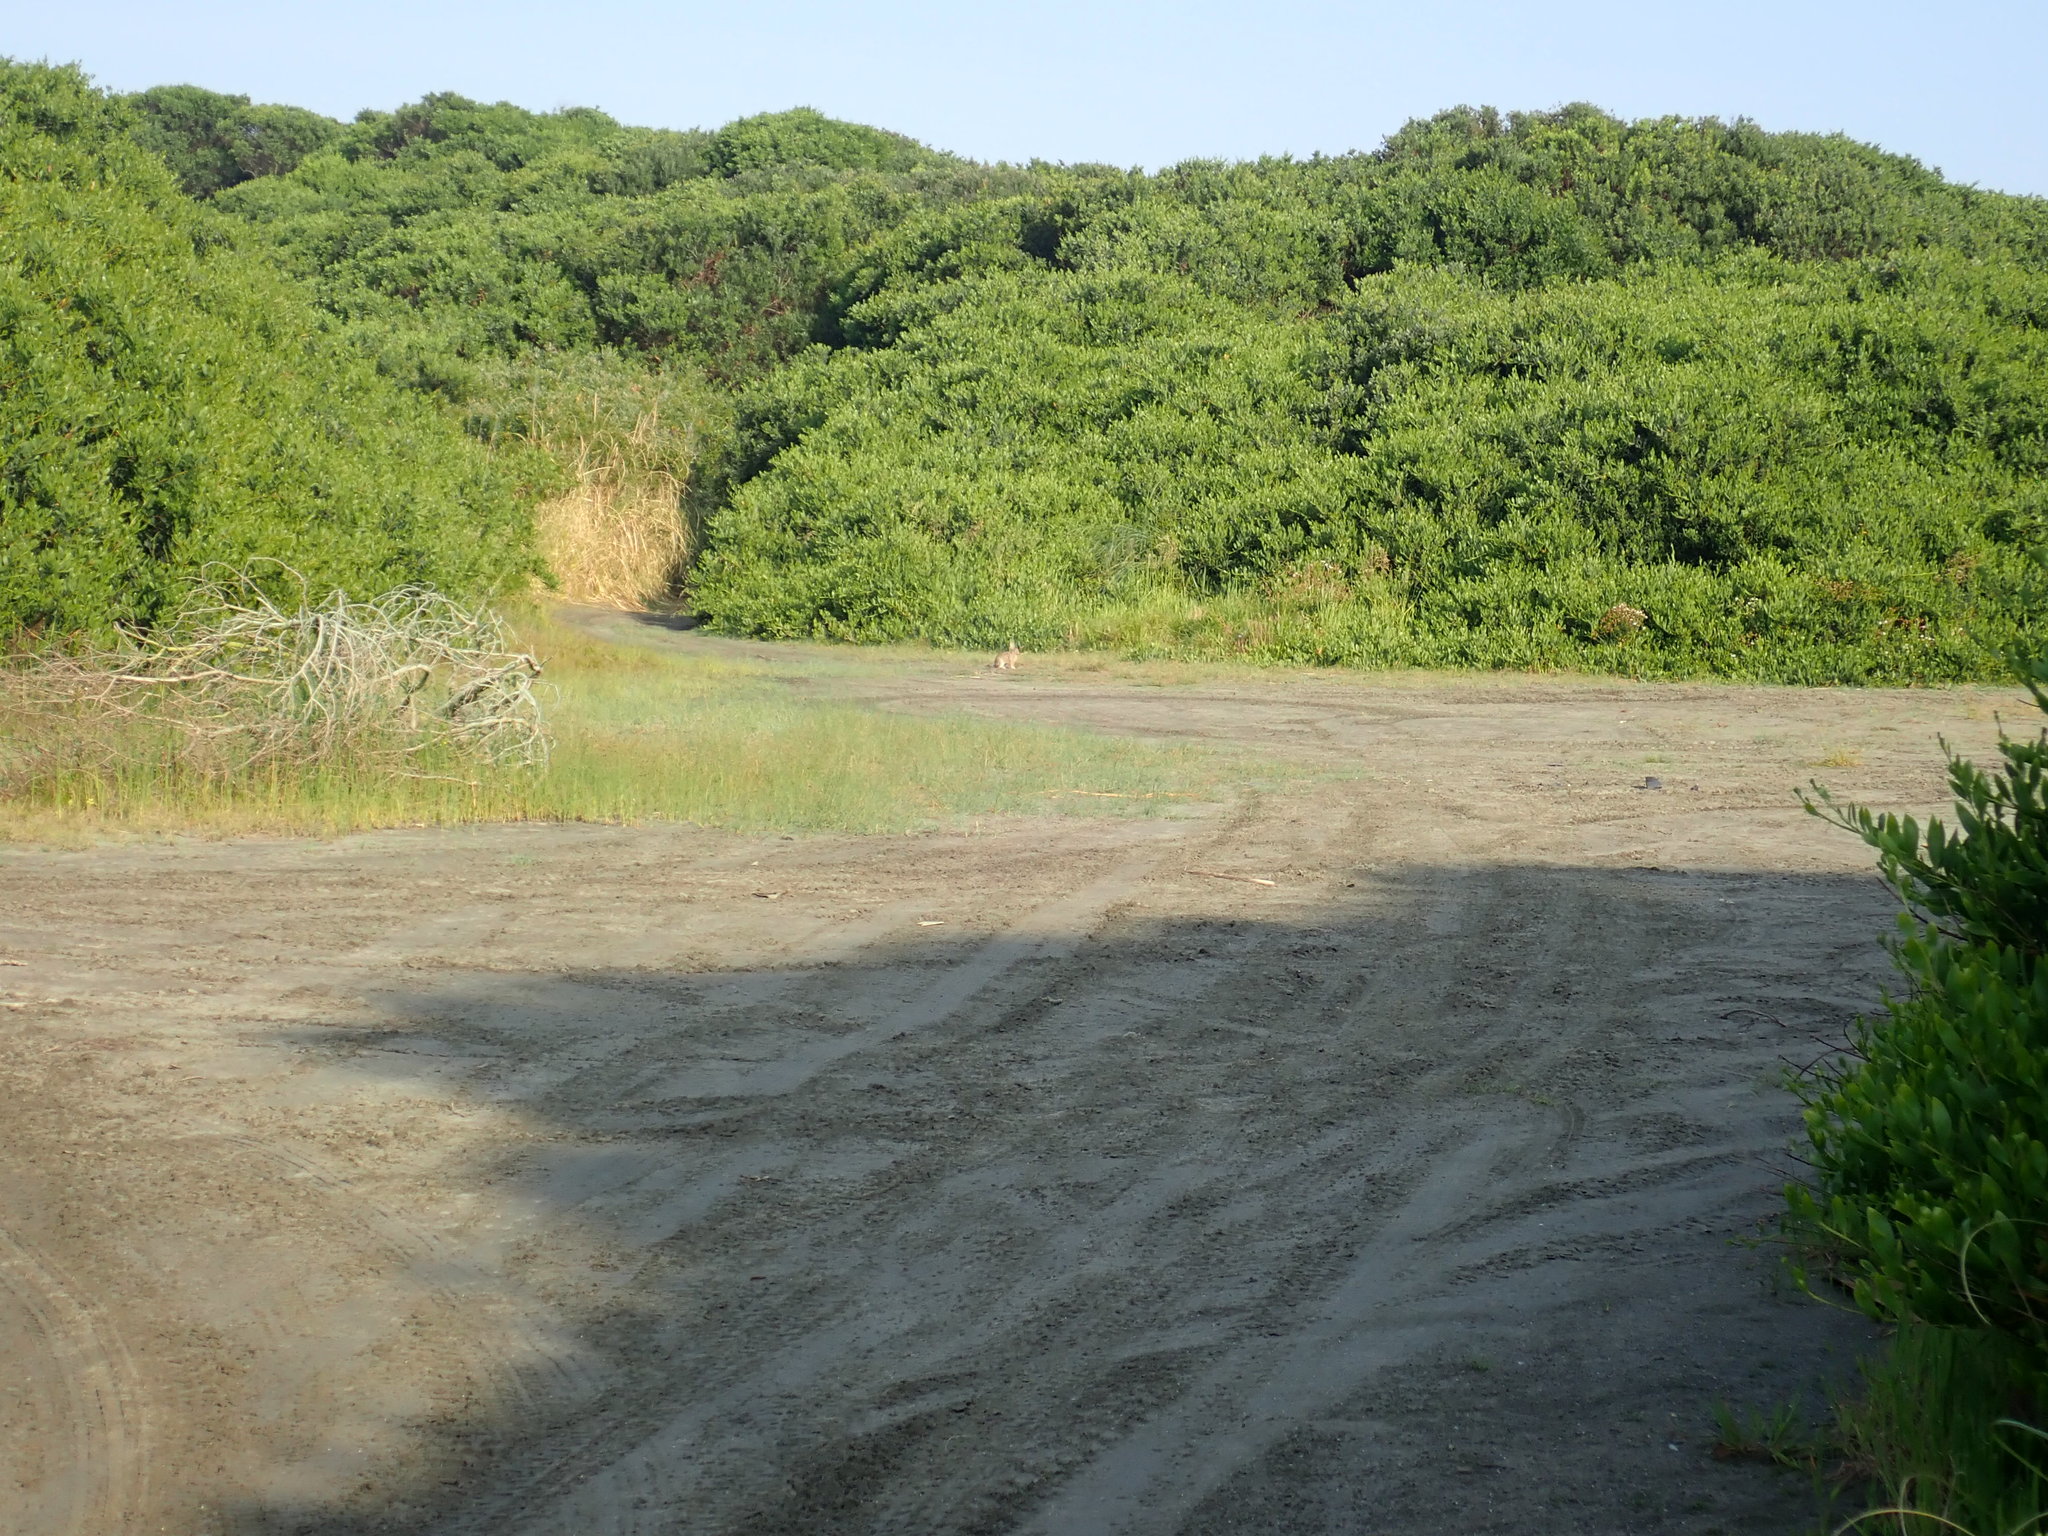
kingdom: Animalia
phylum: Chordata
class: Mammalia
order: Lagomorpha
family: Leporidae
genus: Oryctolagus
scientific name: Oryctolagus cuniculus
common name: European rabbit
